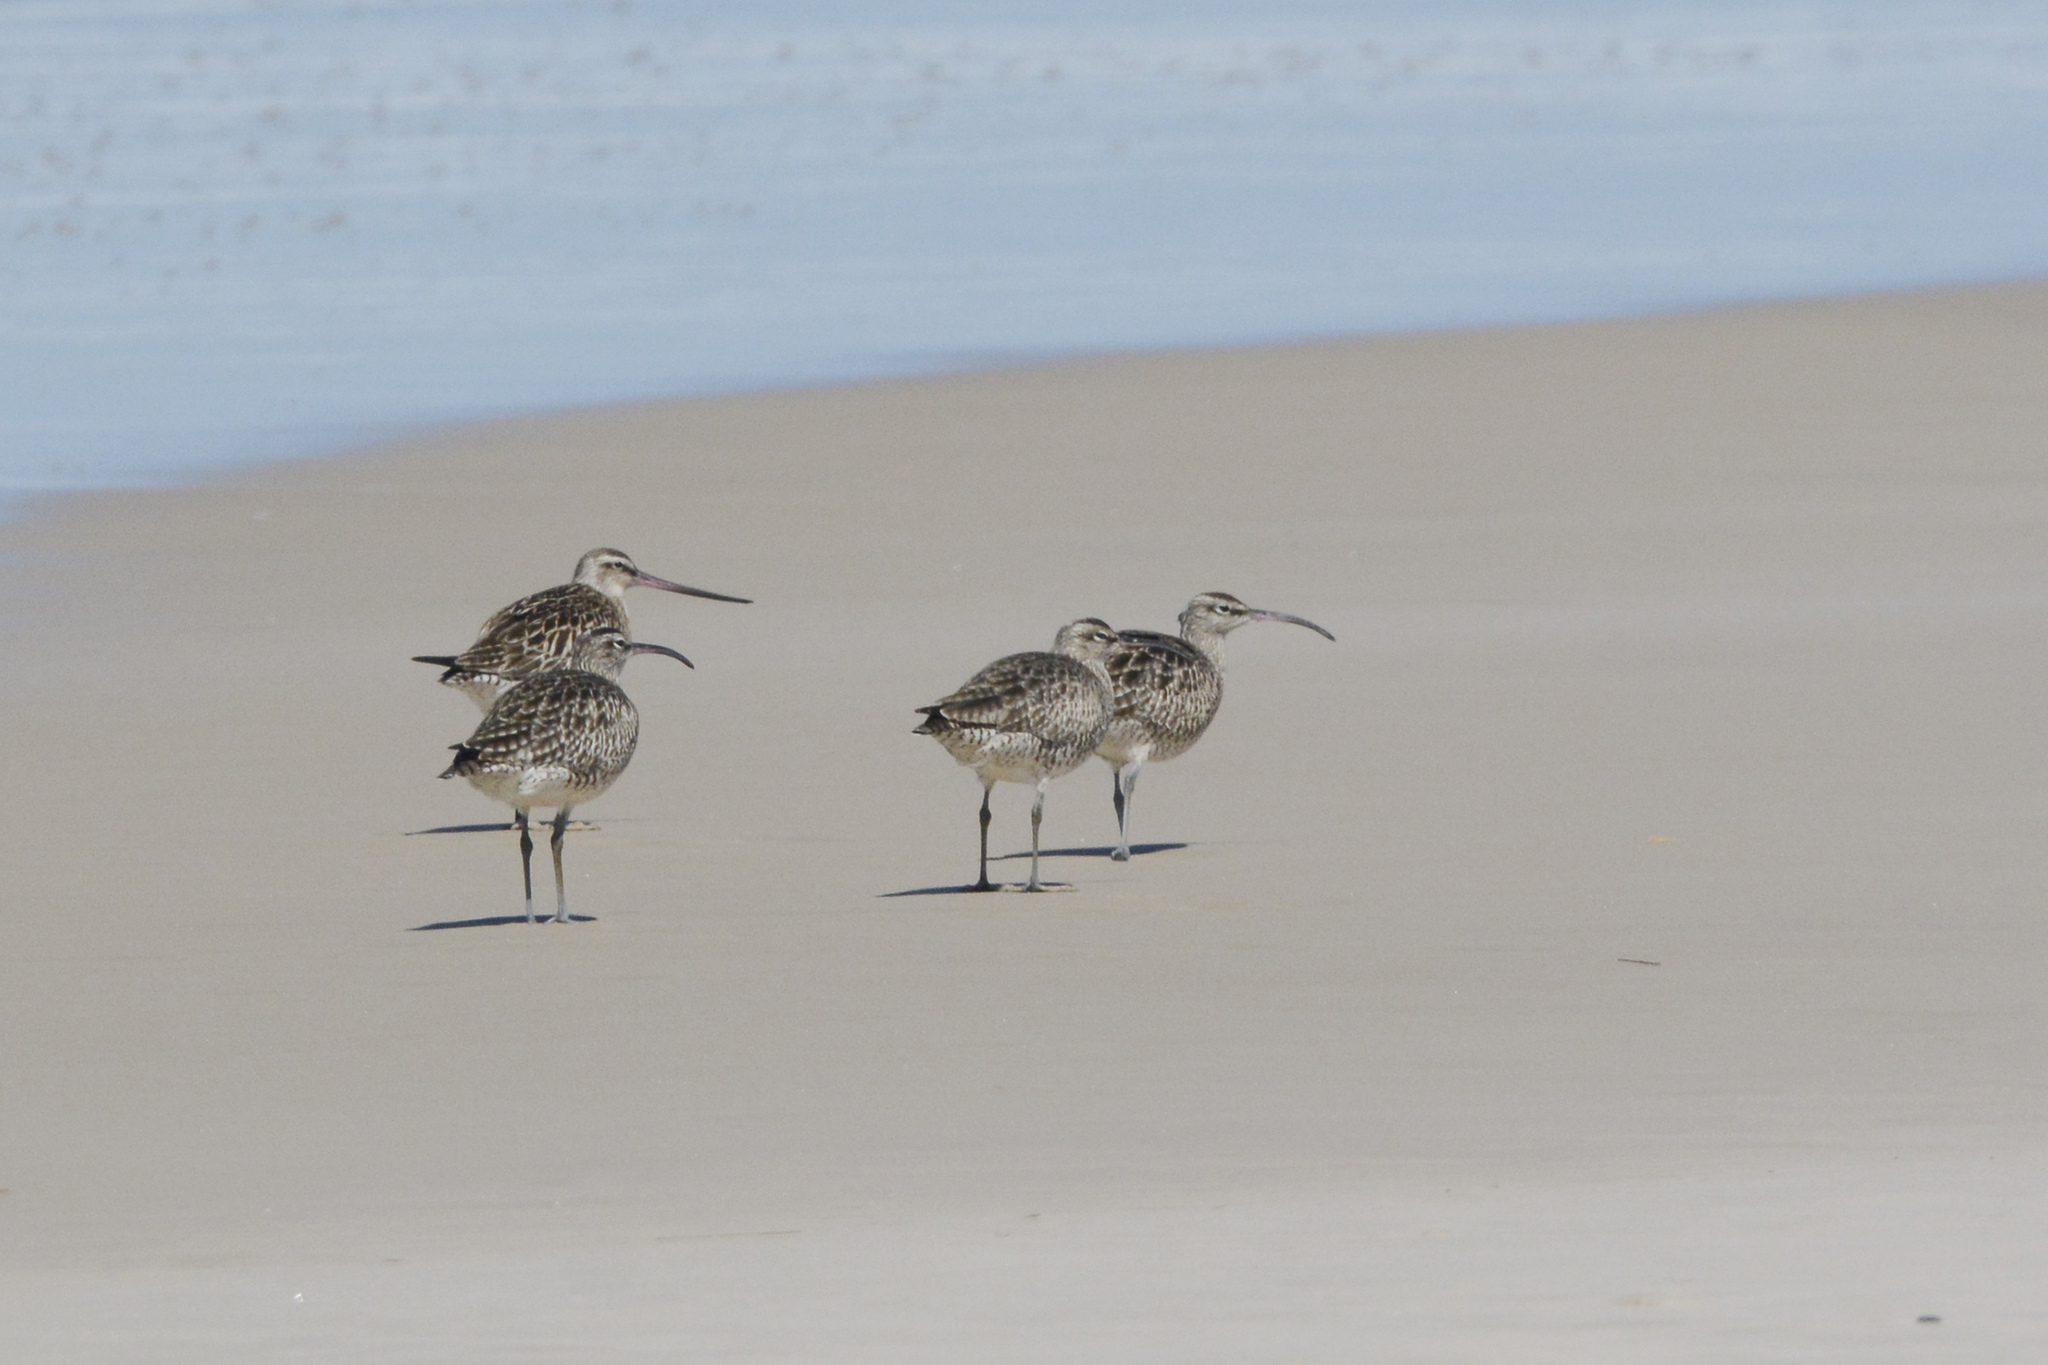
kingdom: Animalia
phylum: Chordata
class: Aves
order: Charadriiformes
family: Scolopacidae
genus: Numenius
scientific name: Numenius phaeopus
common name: Whimbrel
